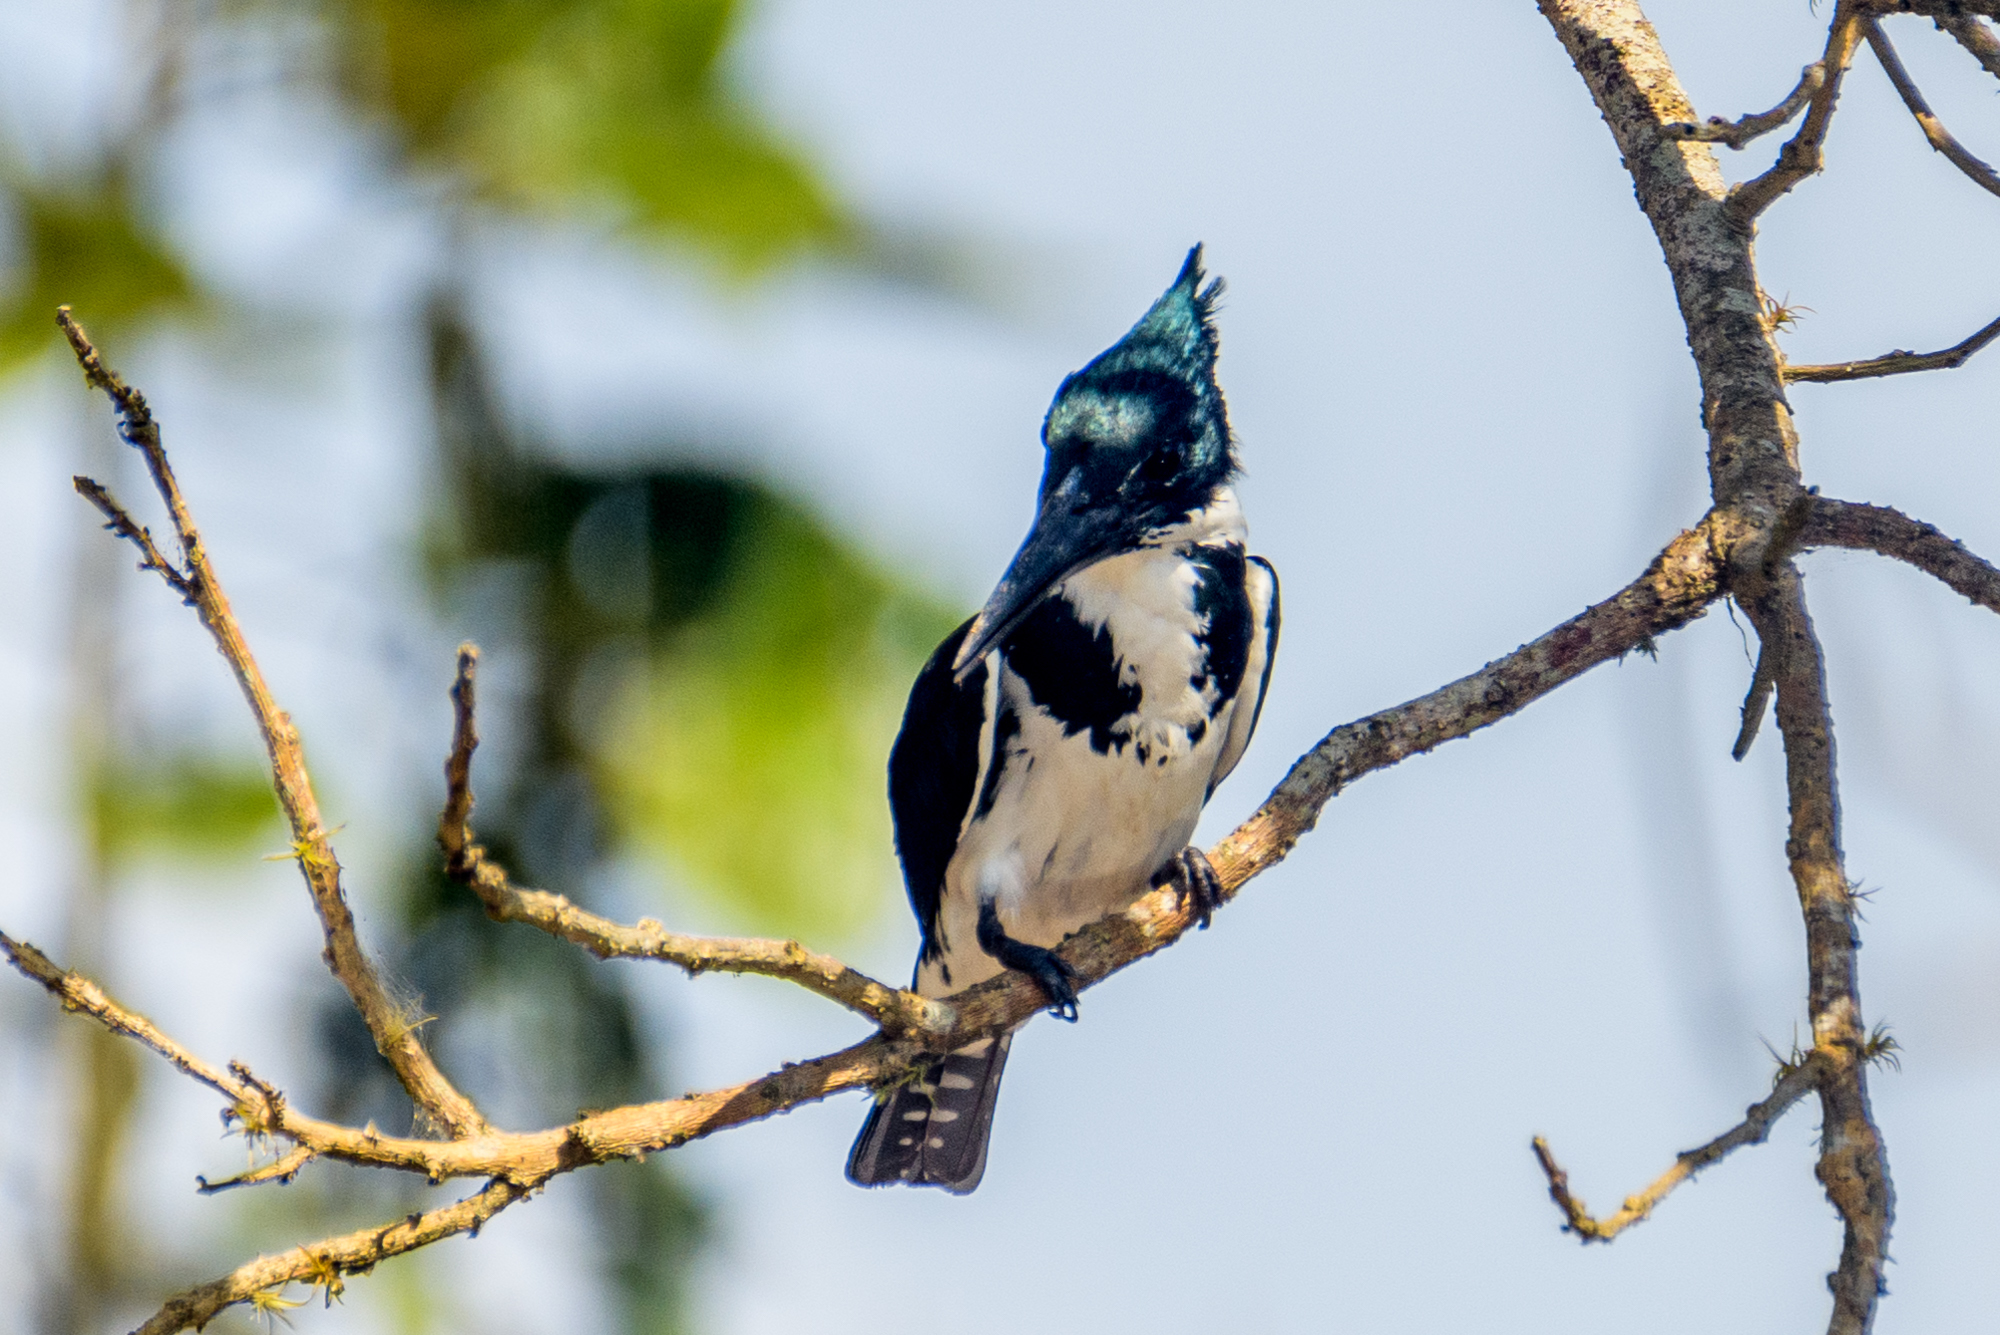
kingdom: Animalia
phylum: Chordata
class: Aves
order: Coraciiformes
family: Alcedinidae
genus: Chloroceryle
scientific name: Chloroceryle amazona
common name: Amazon kingfisher
